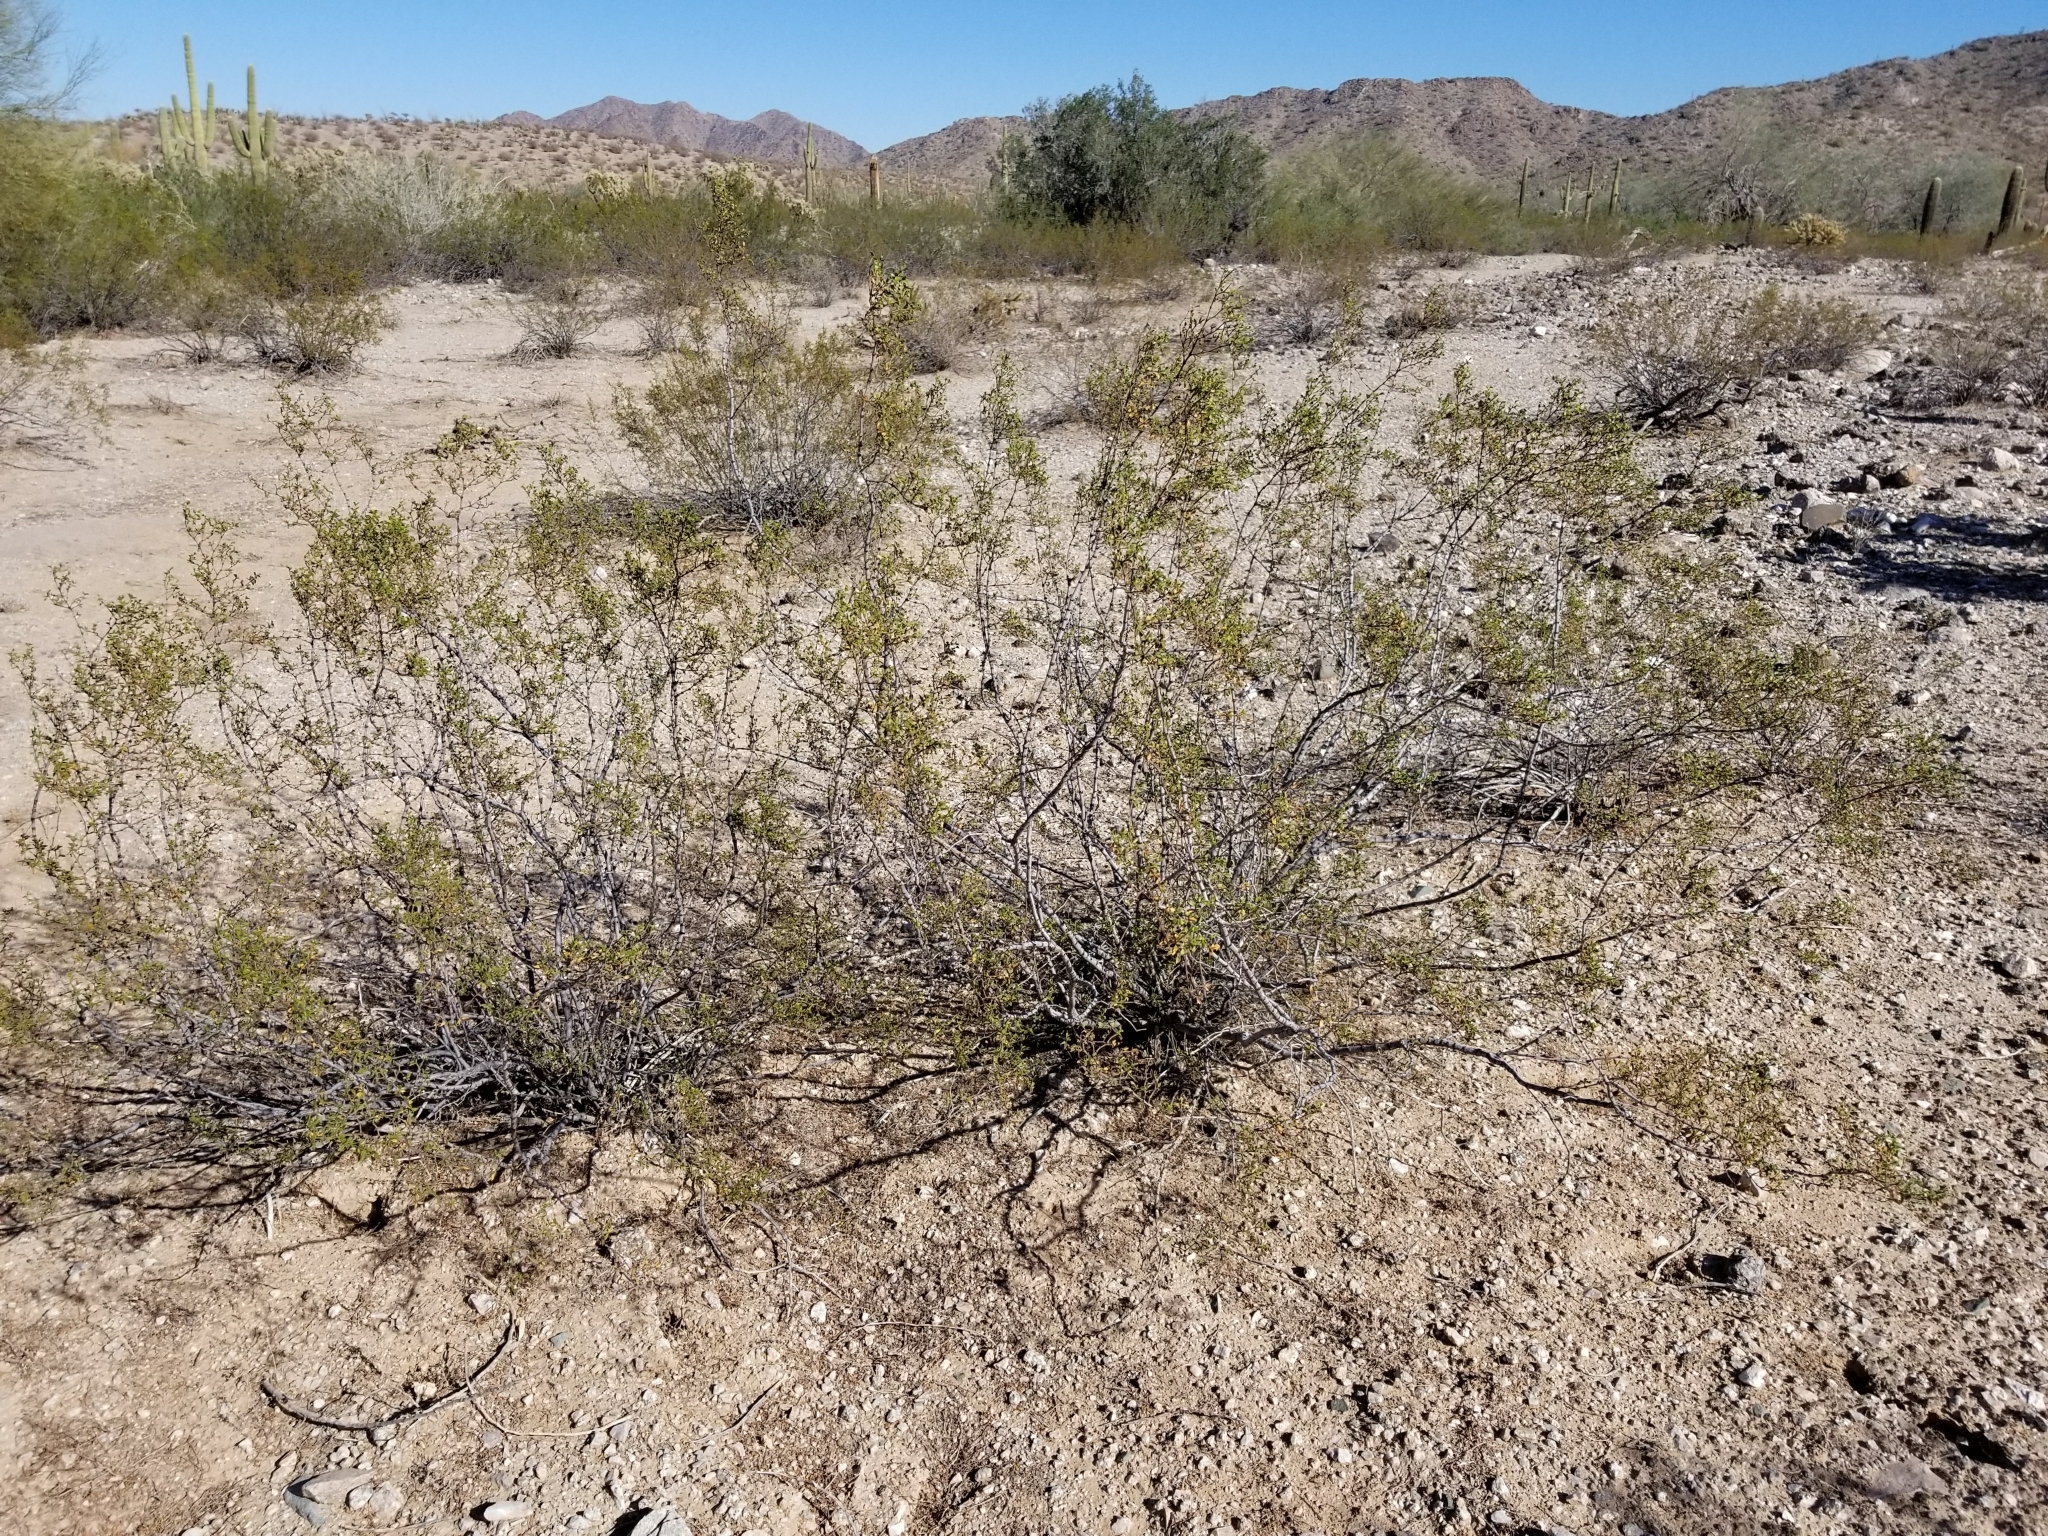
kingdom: Plantae
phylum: Tracheophyta
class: Magnoliopsida
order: Zygophyllales
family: Zygophyllaceae
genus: Larrea
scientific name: Larrea tridentata
